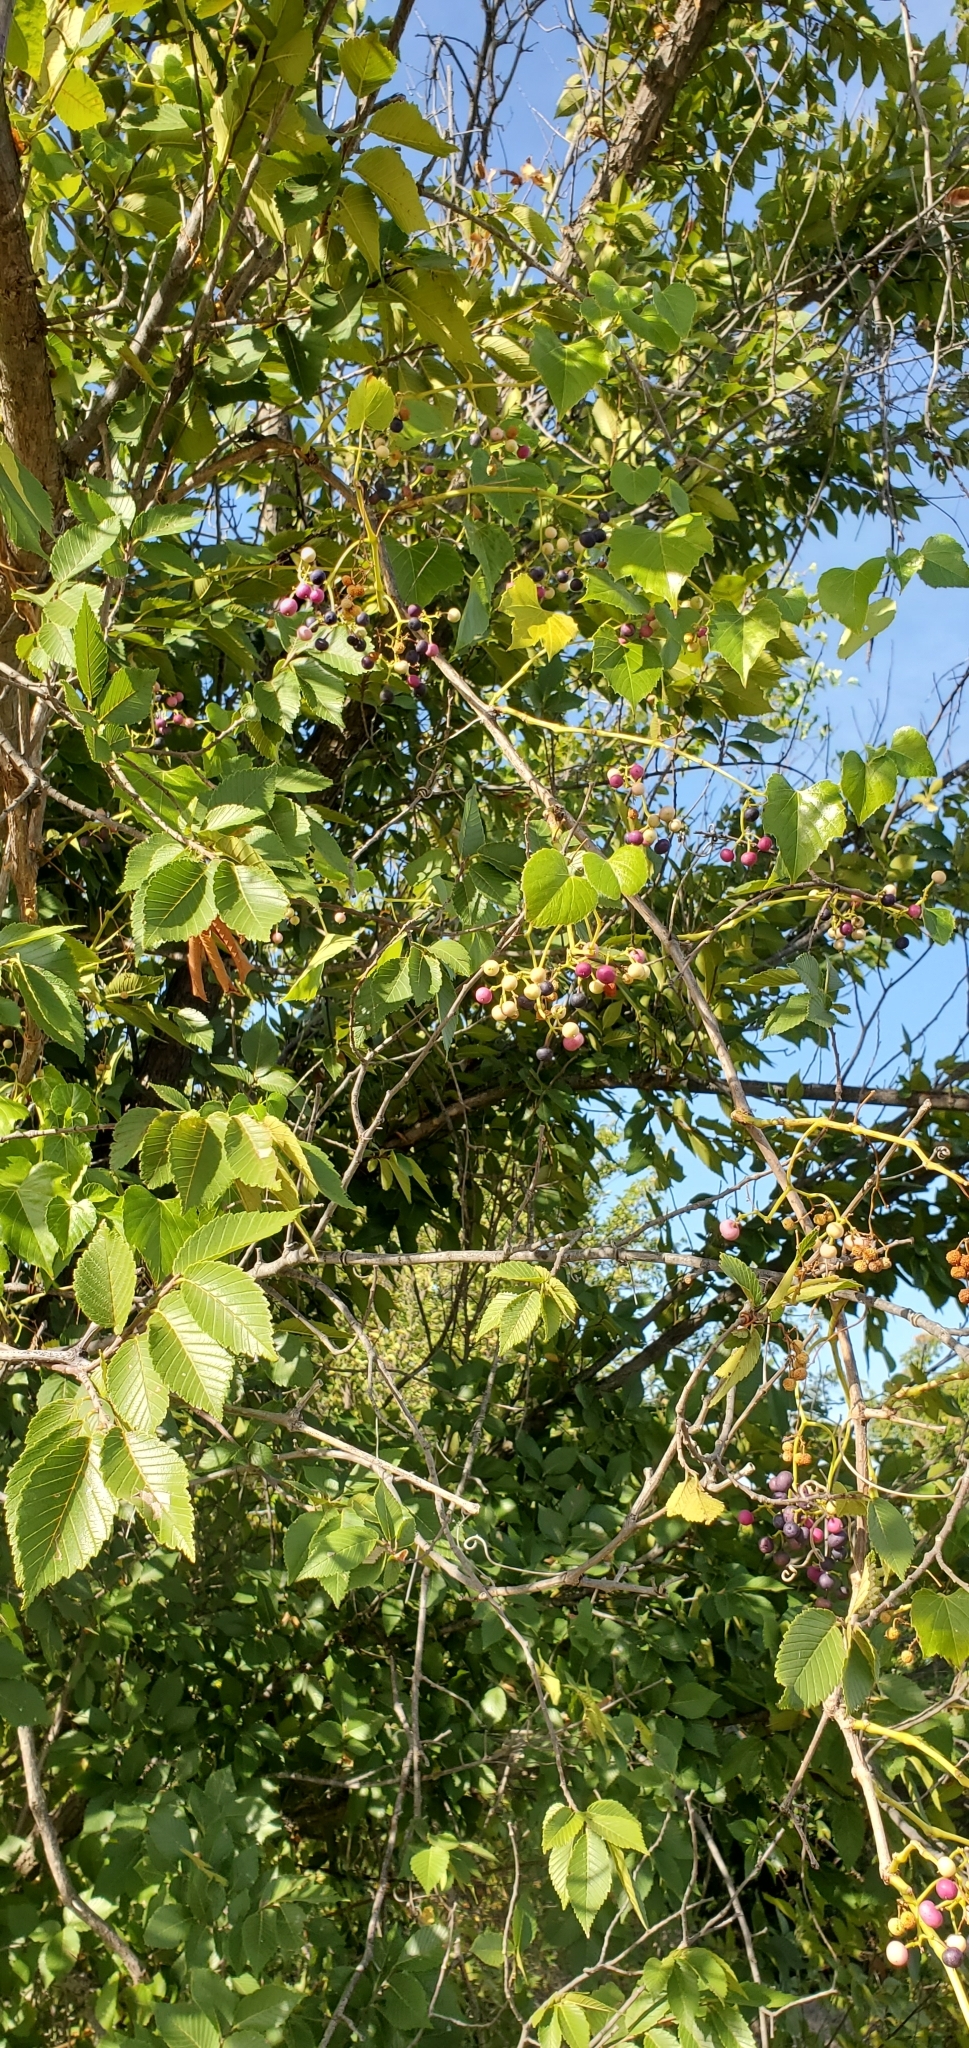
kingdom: Plantae
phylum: Tracheophyta
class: Magnoliopsida
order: Vitales
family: Vitaceae
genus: Ampelopsis
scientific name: Ampelopsis cordata
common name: Heart-leaf ampelopsis
